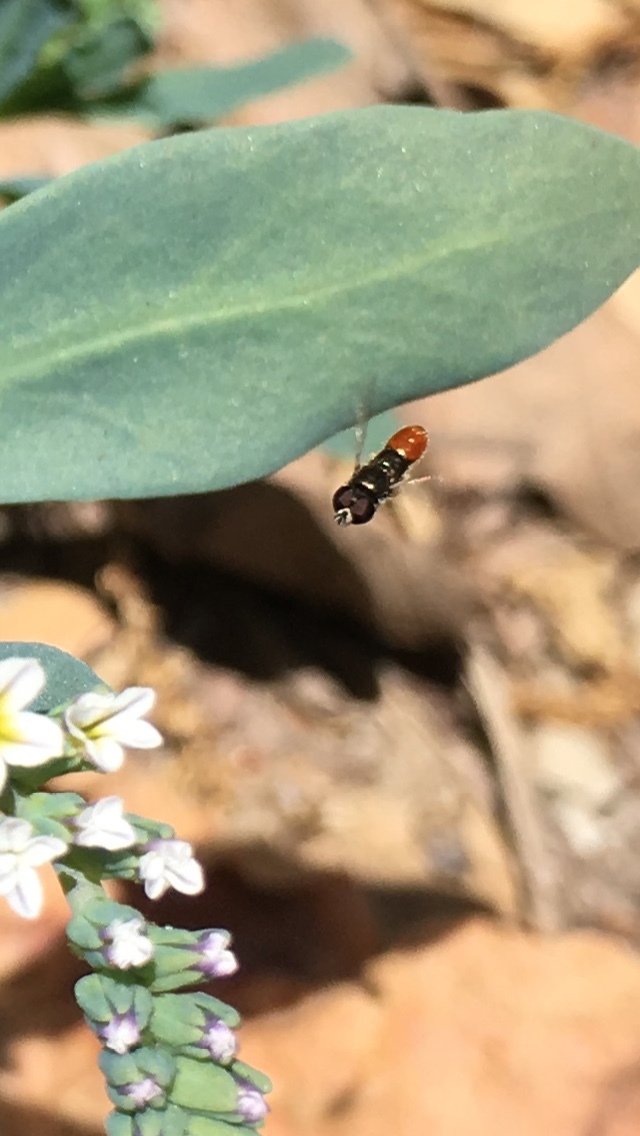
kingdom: Animalia
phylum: Arthropoda
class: Insecta
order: Diptera
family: Syrphidae
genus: Paragus
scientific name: Paragus haemorrhous
